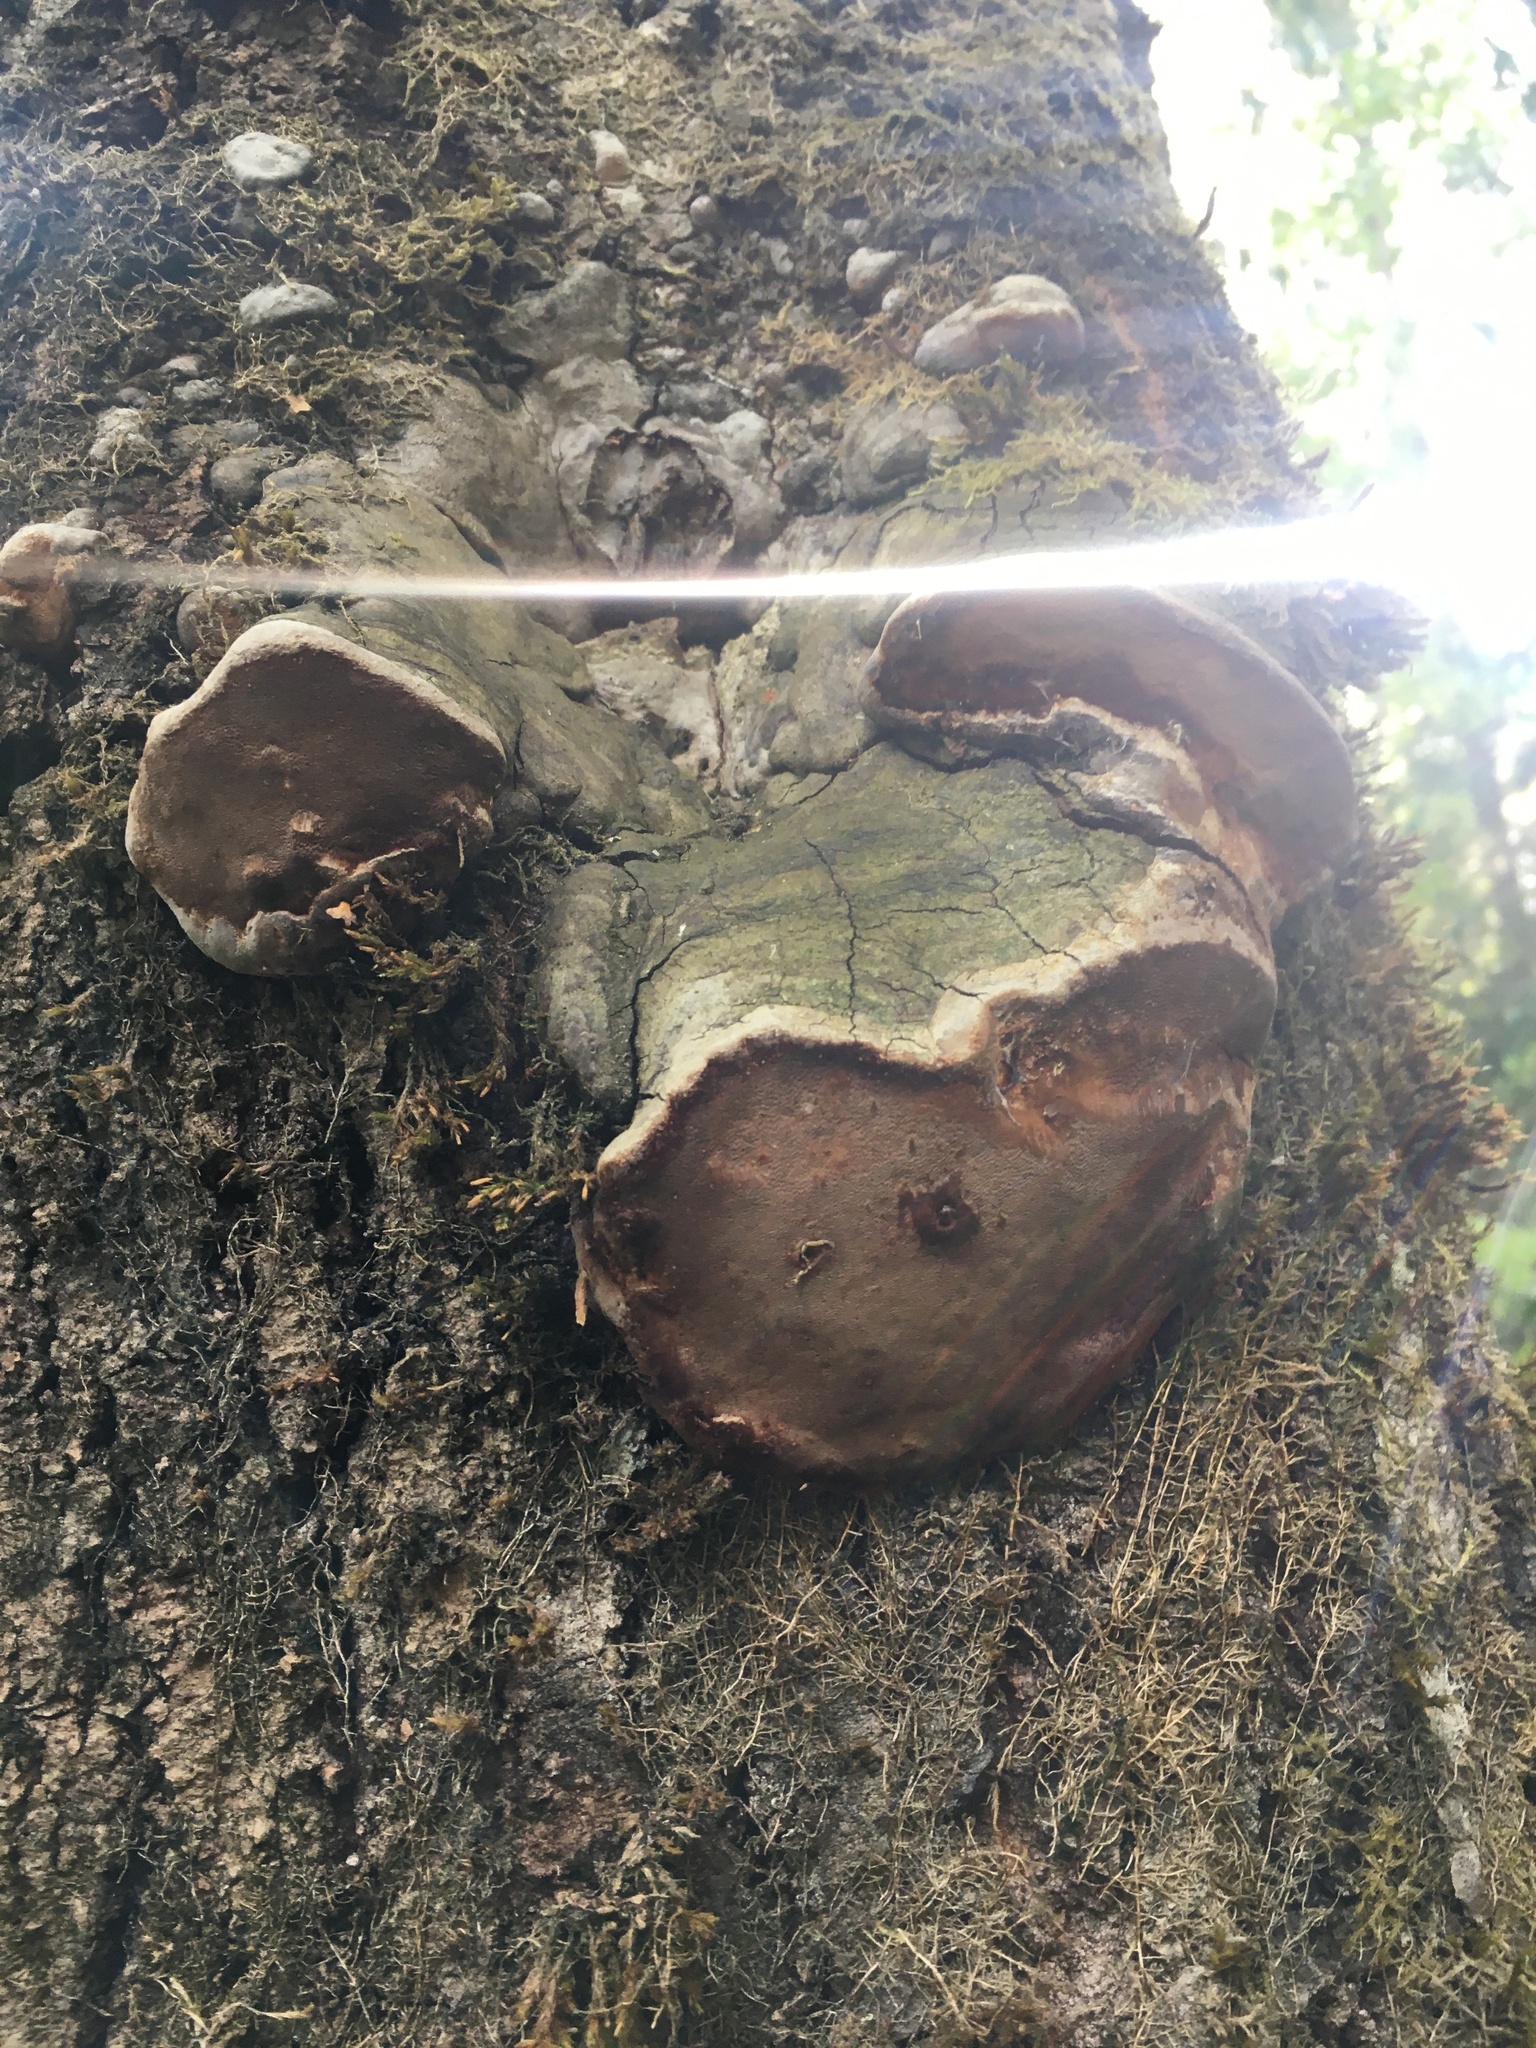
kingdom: Fungi
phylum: Basidiomycota
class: Agaricomycetes
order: Hymenochaetales
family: Hymenochaetaceae
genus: Phellinus
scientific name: Phellinus tremulae
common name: Aspen bracket
